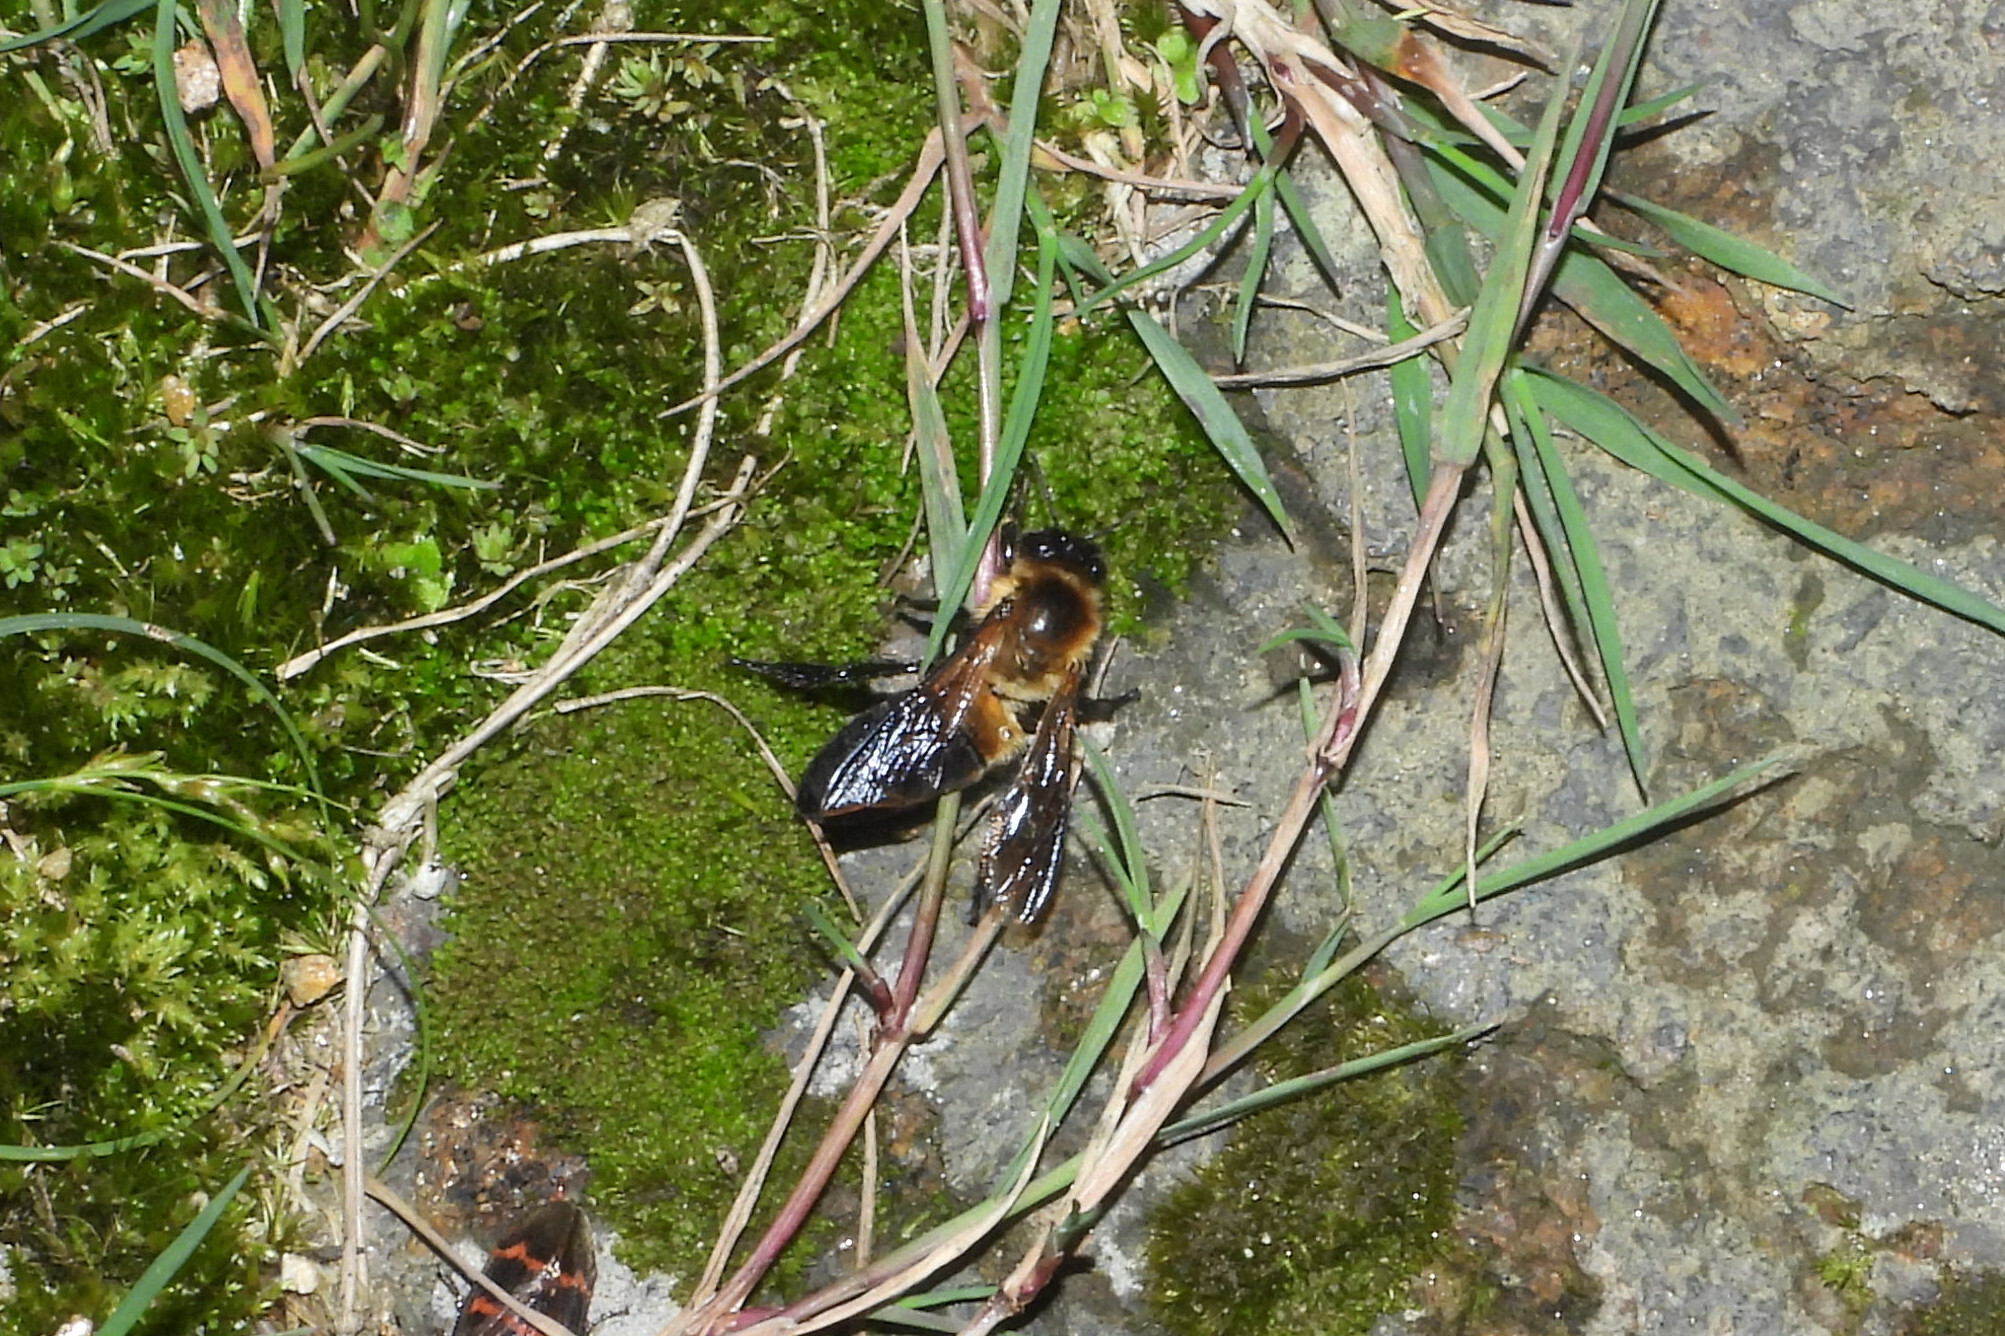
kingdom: Animalia
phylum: Arthropoda
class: Insecta
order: Hymenoptera
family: Apidae
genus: Apis
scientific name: Apis laboriosa
